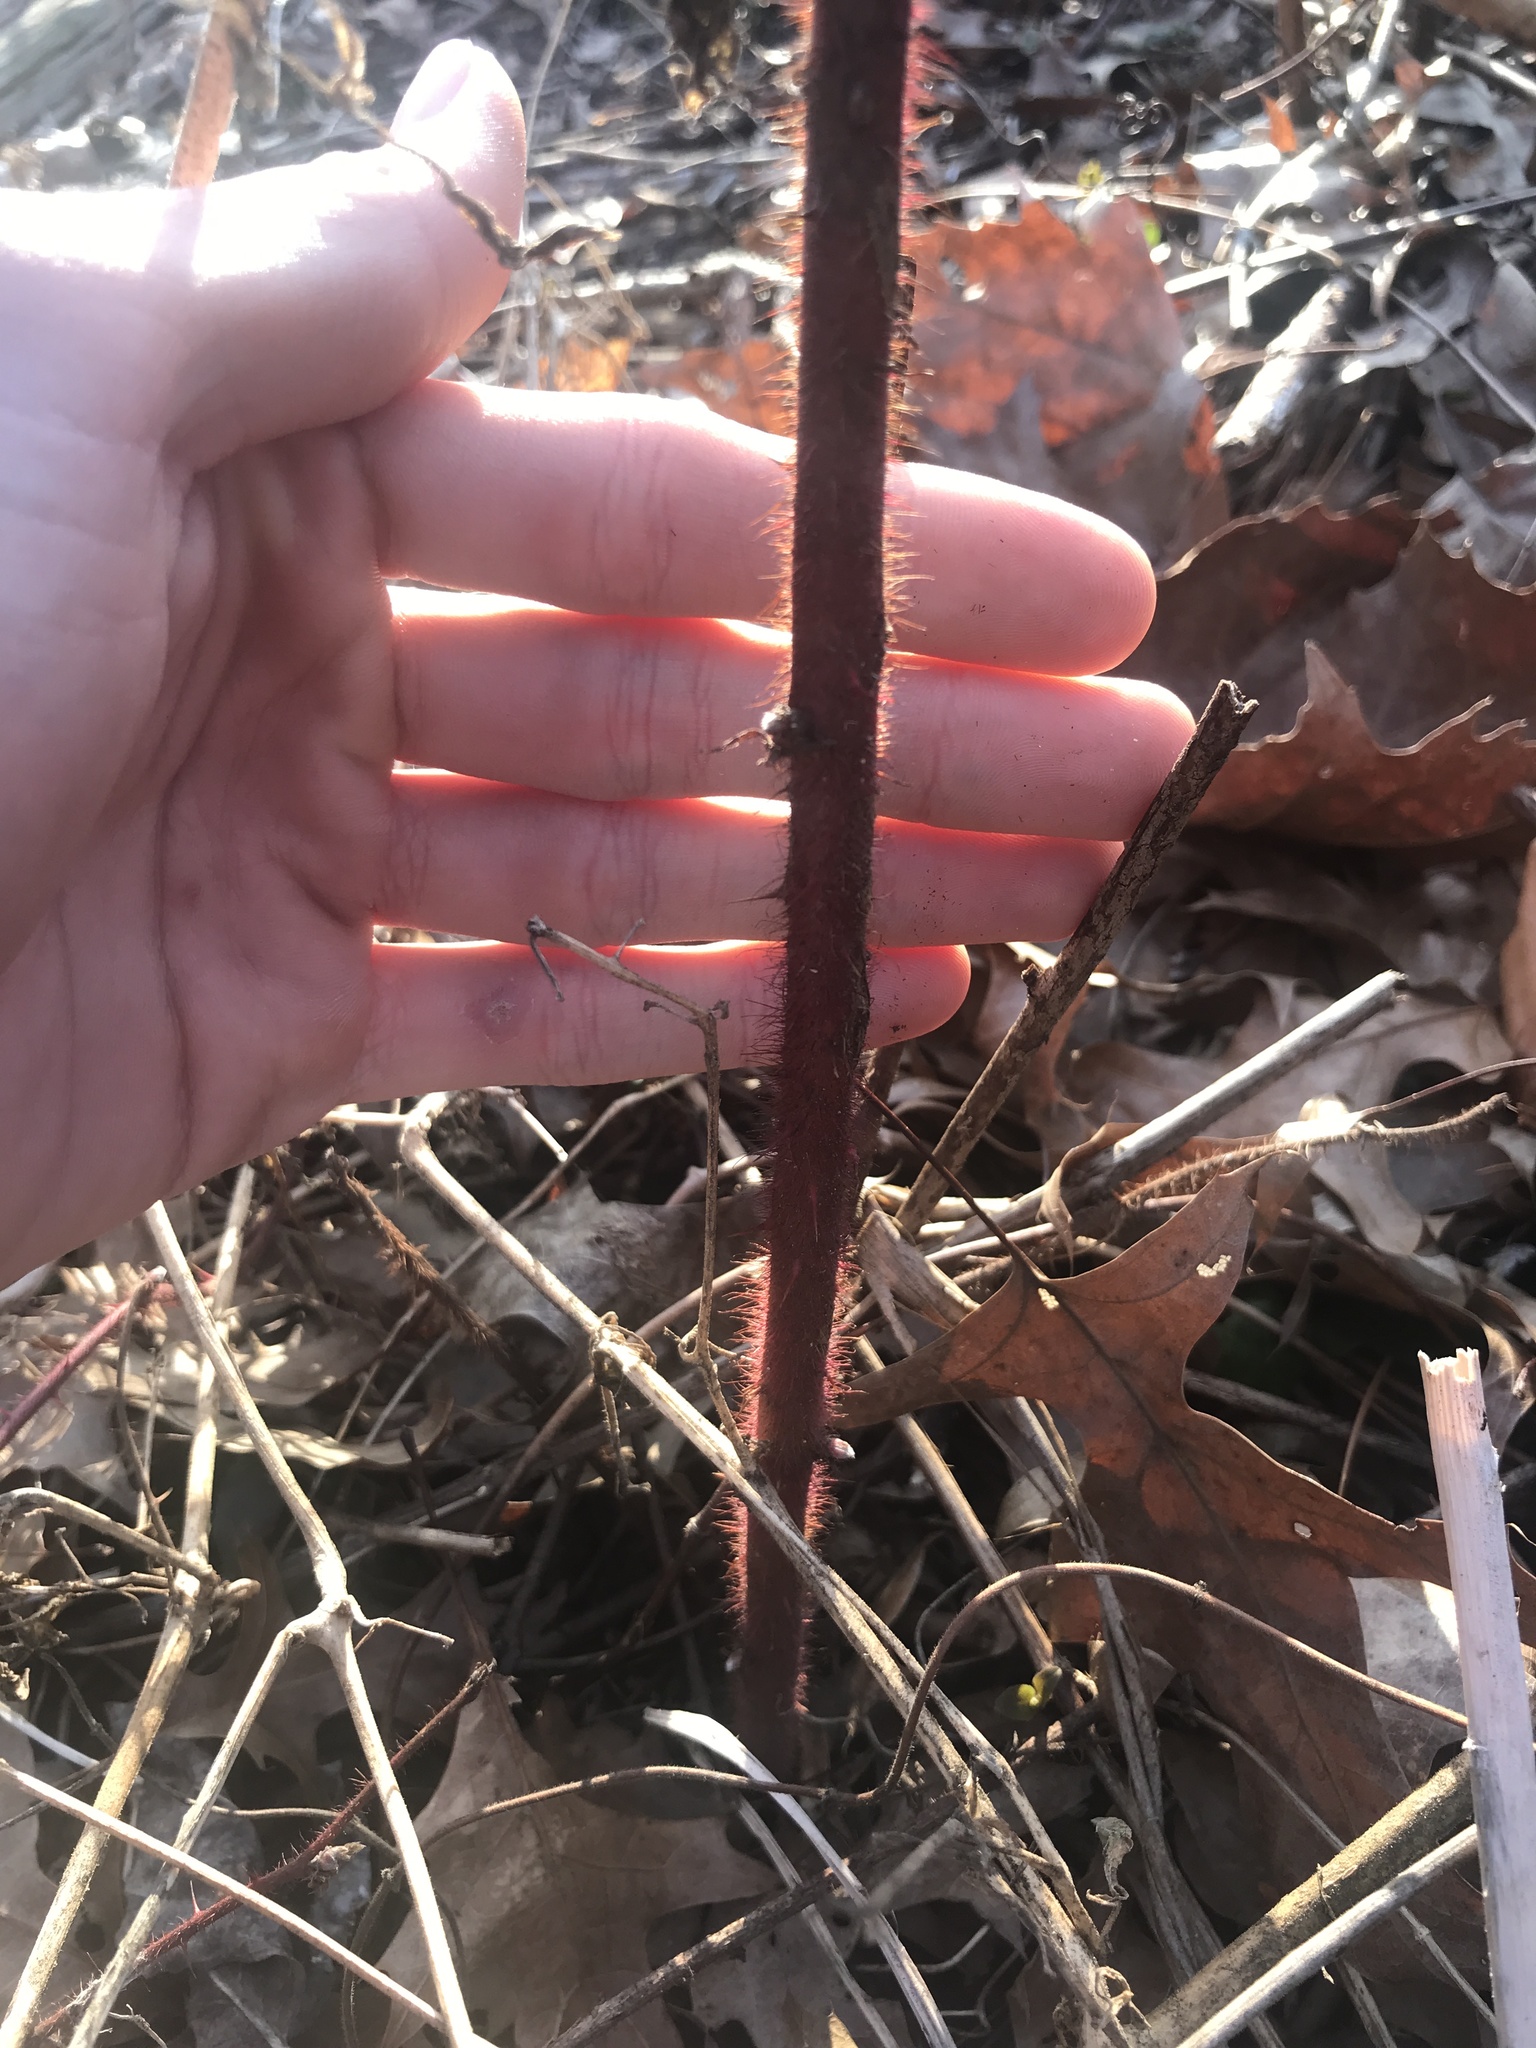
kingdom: Plantae
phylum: Tracheophyta
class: Magnoliopsida
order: Rosales
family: Rosaceae
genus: Rubus
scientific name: Rubus phoenicolasius
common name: Japanese wineberry
